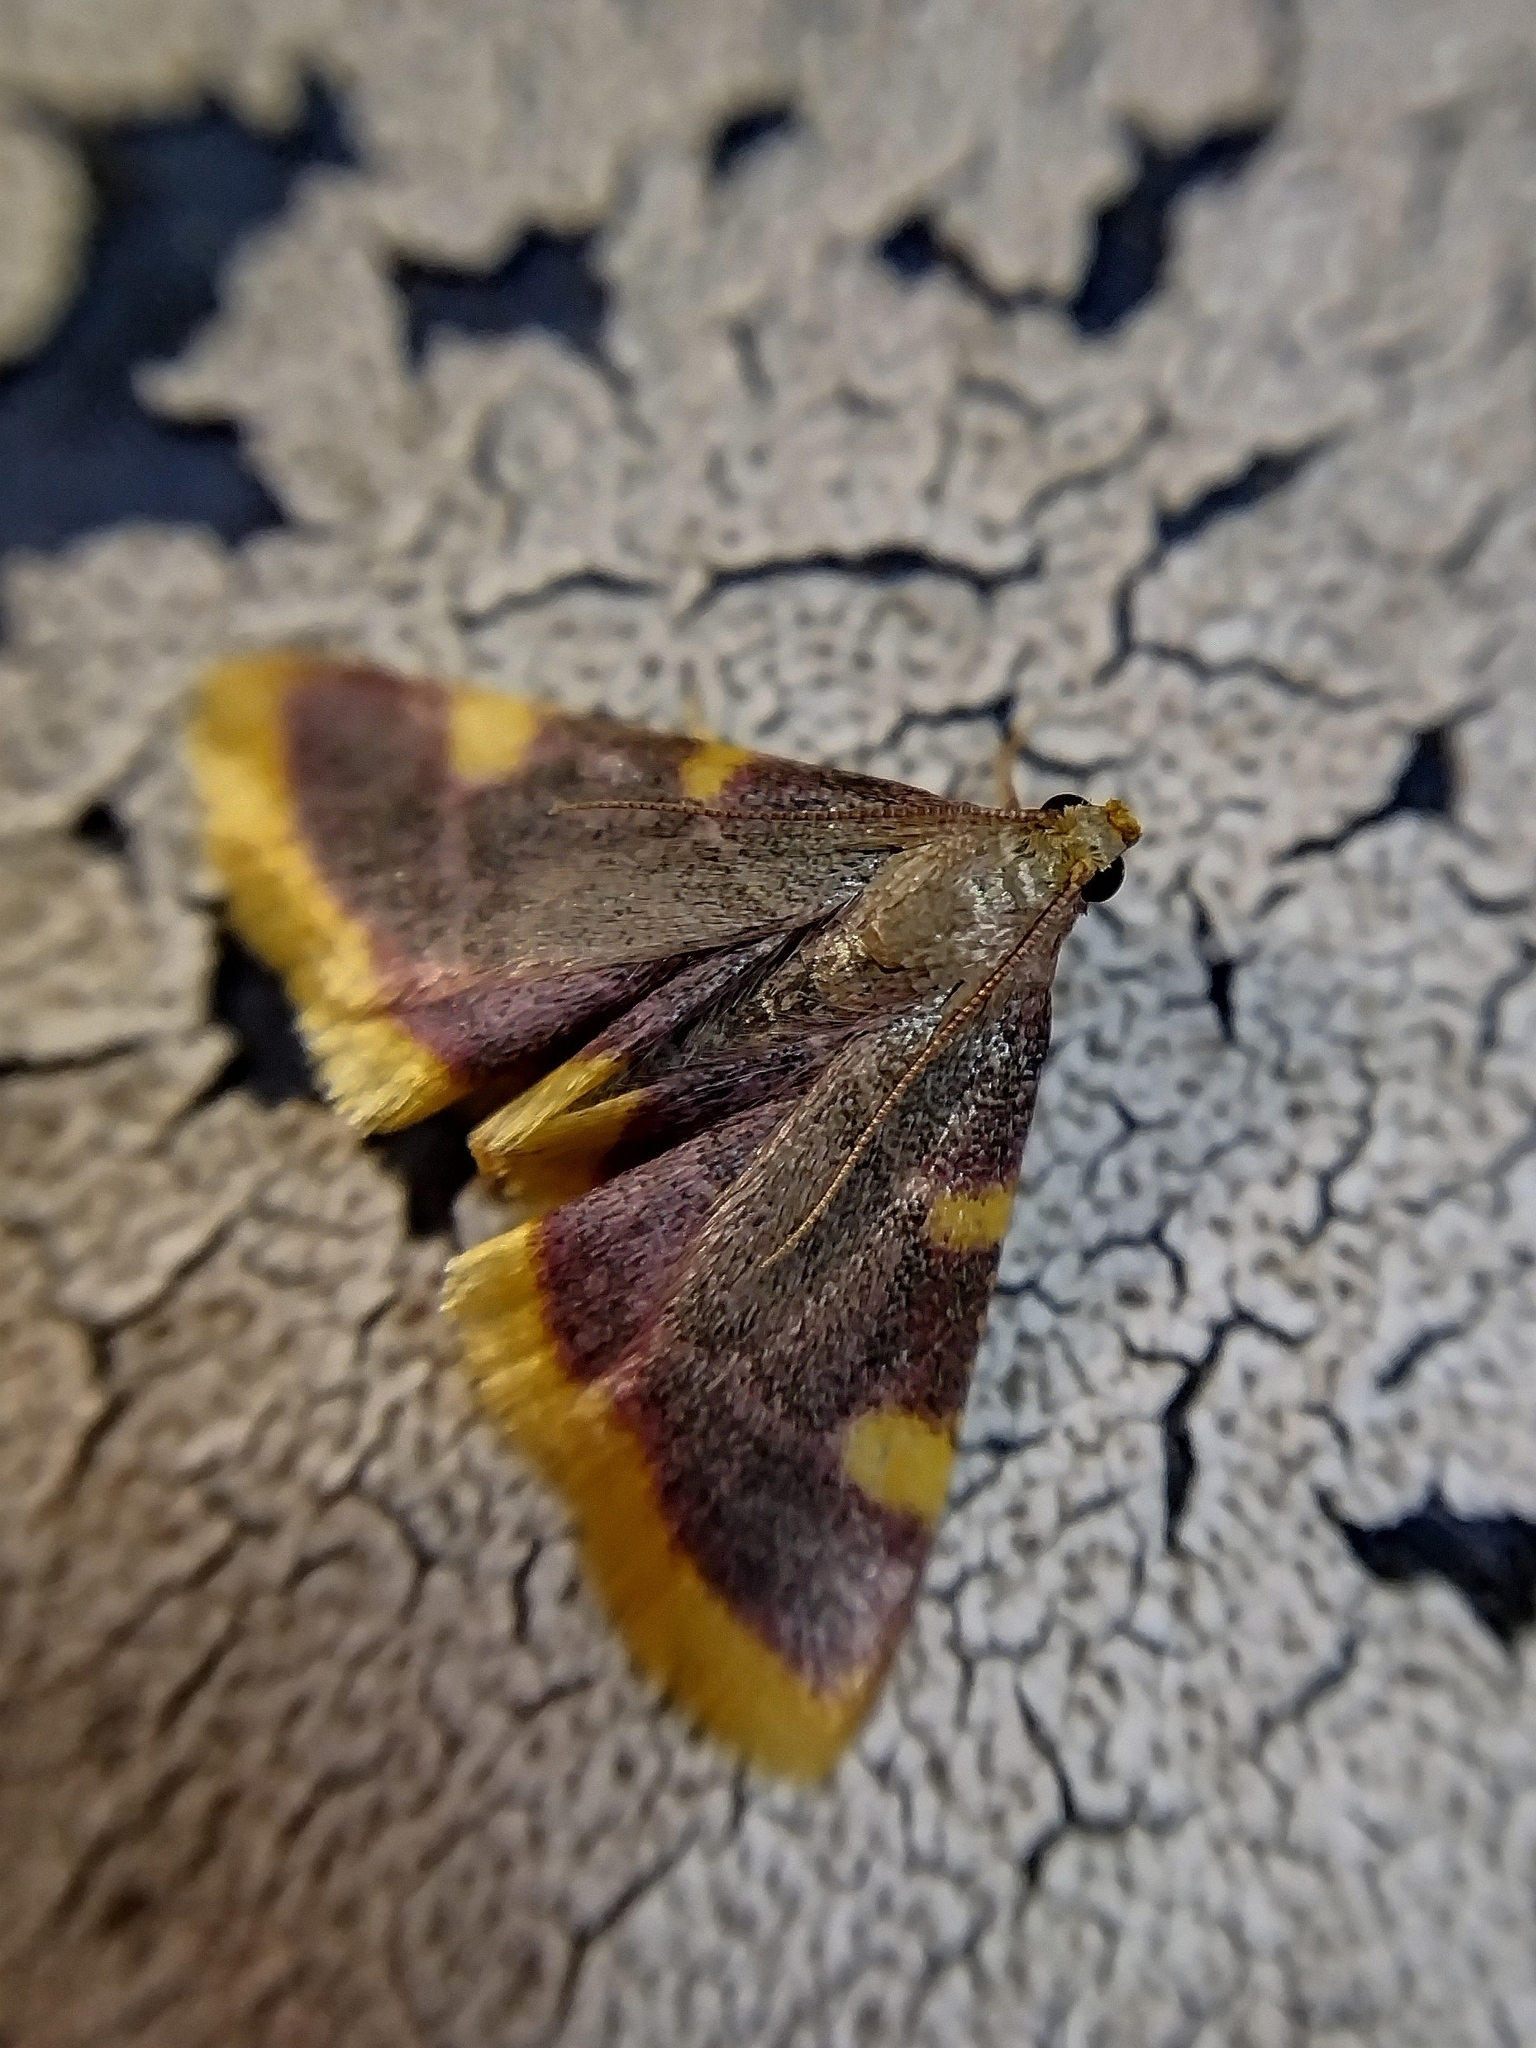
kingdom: Animalia
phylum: Arthropoda
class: Insecta
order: Lepidoptera
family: Pyralidae
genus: Hypsopygia
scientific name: Hypsopygia costalis
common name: Gold triangle
